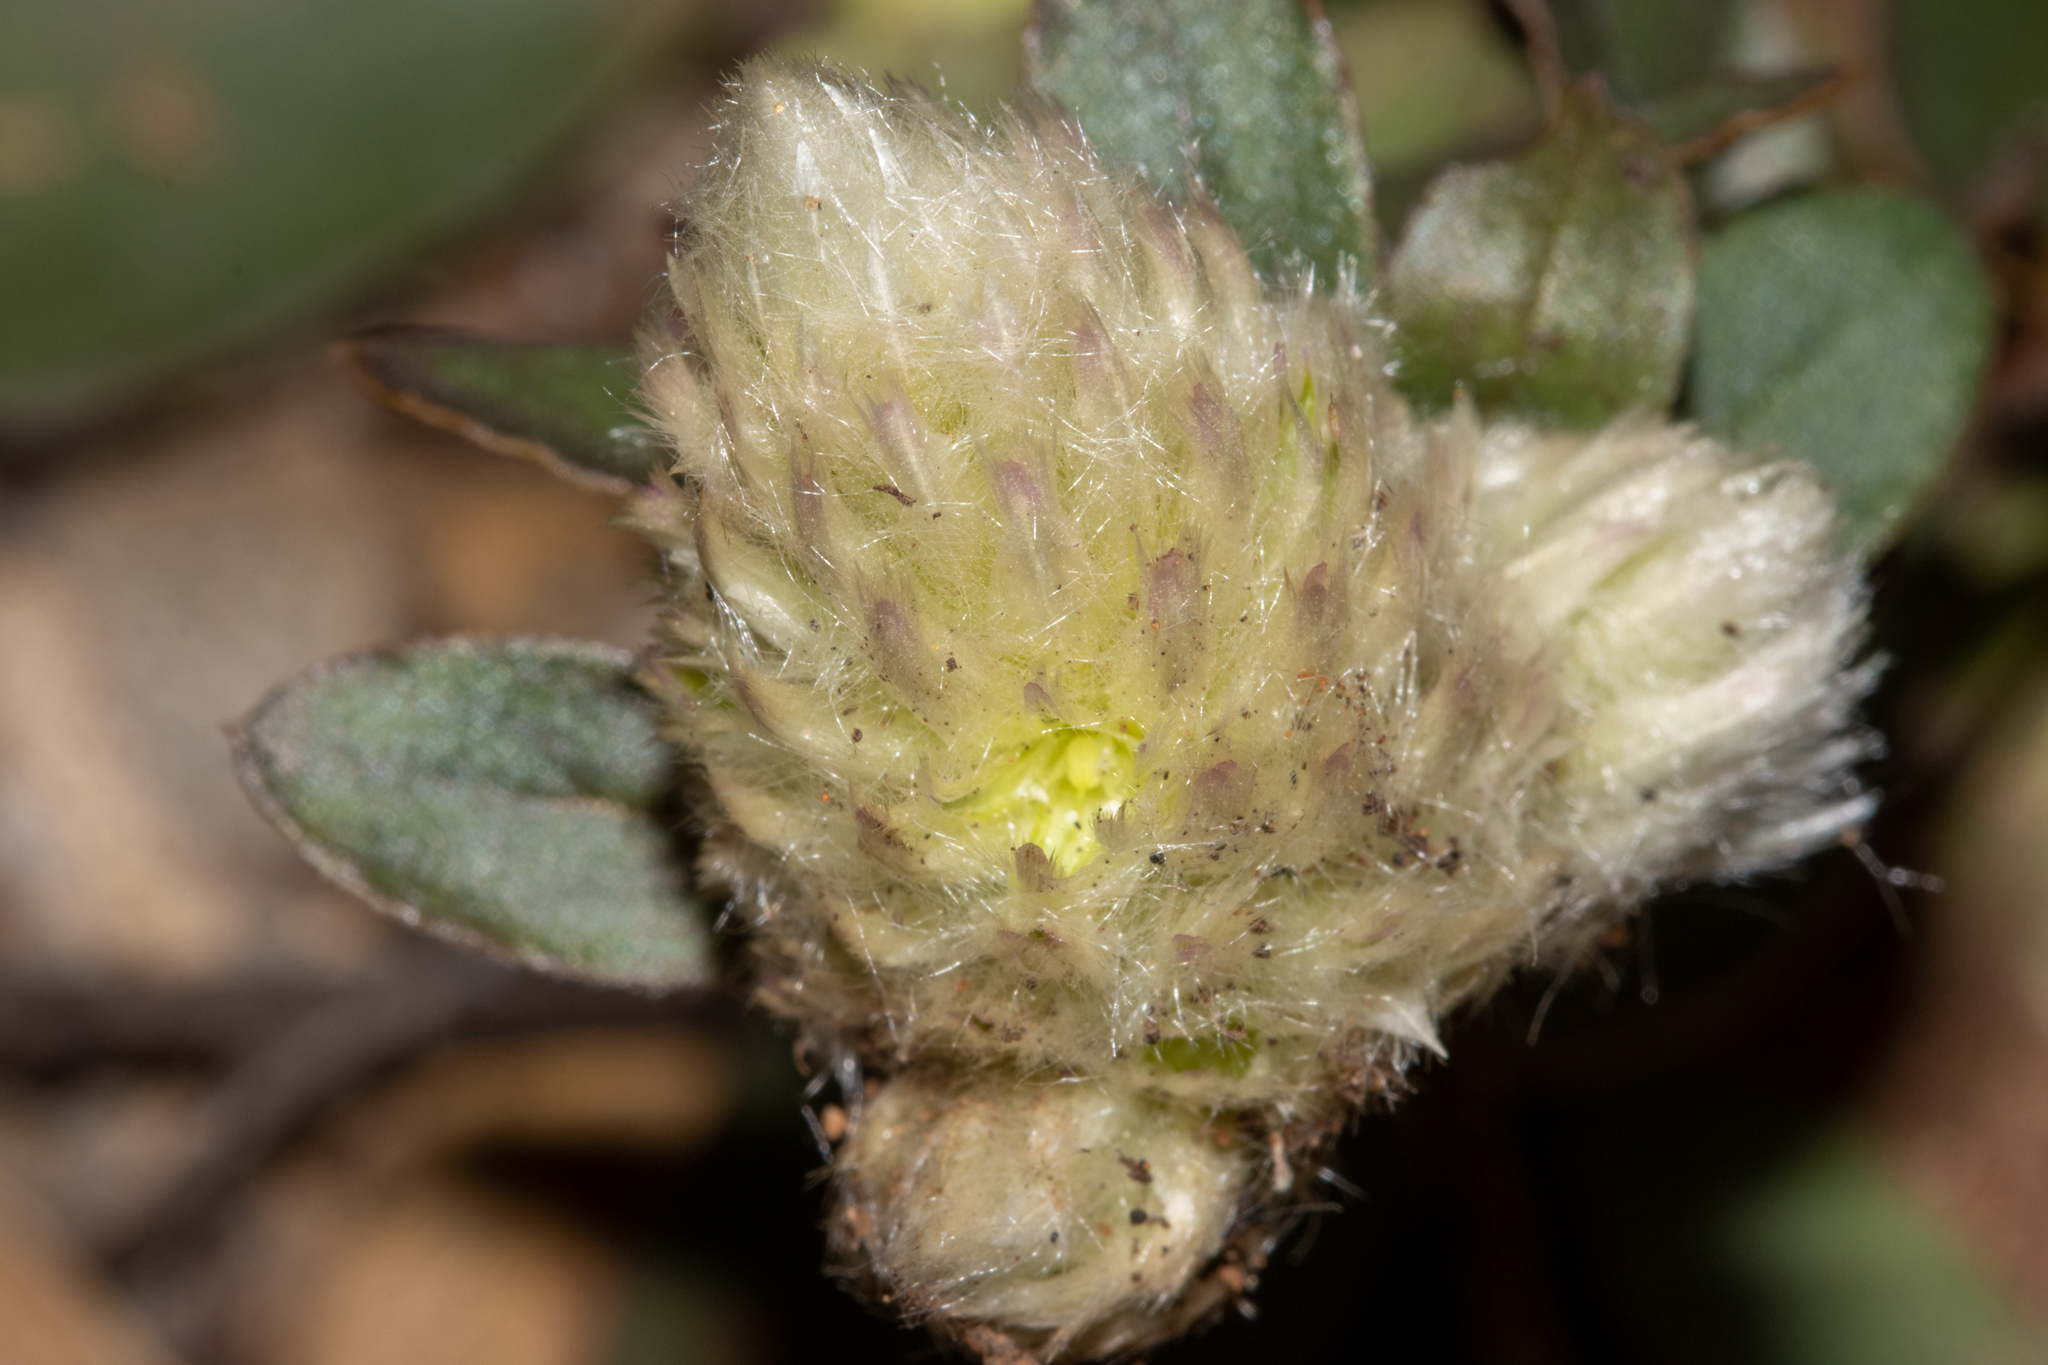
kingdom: Plantae
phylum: Tracheophyta
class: Magnoliopsida
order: Caryophyllales
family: Amaranthaceae
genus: Ptilotus
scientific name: Ptilotus holosericeus
